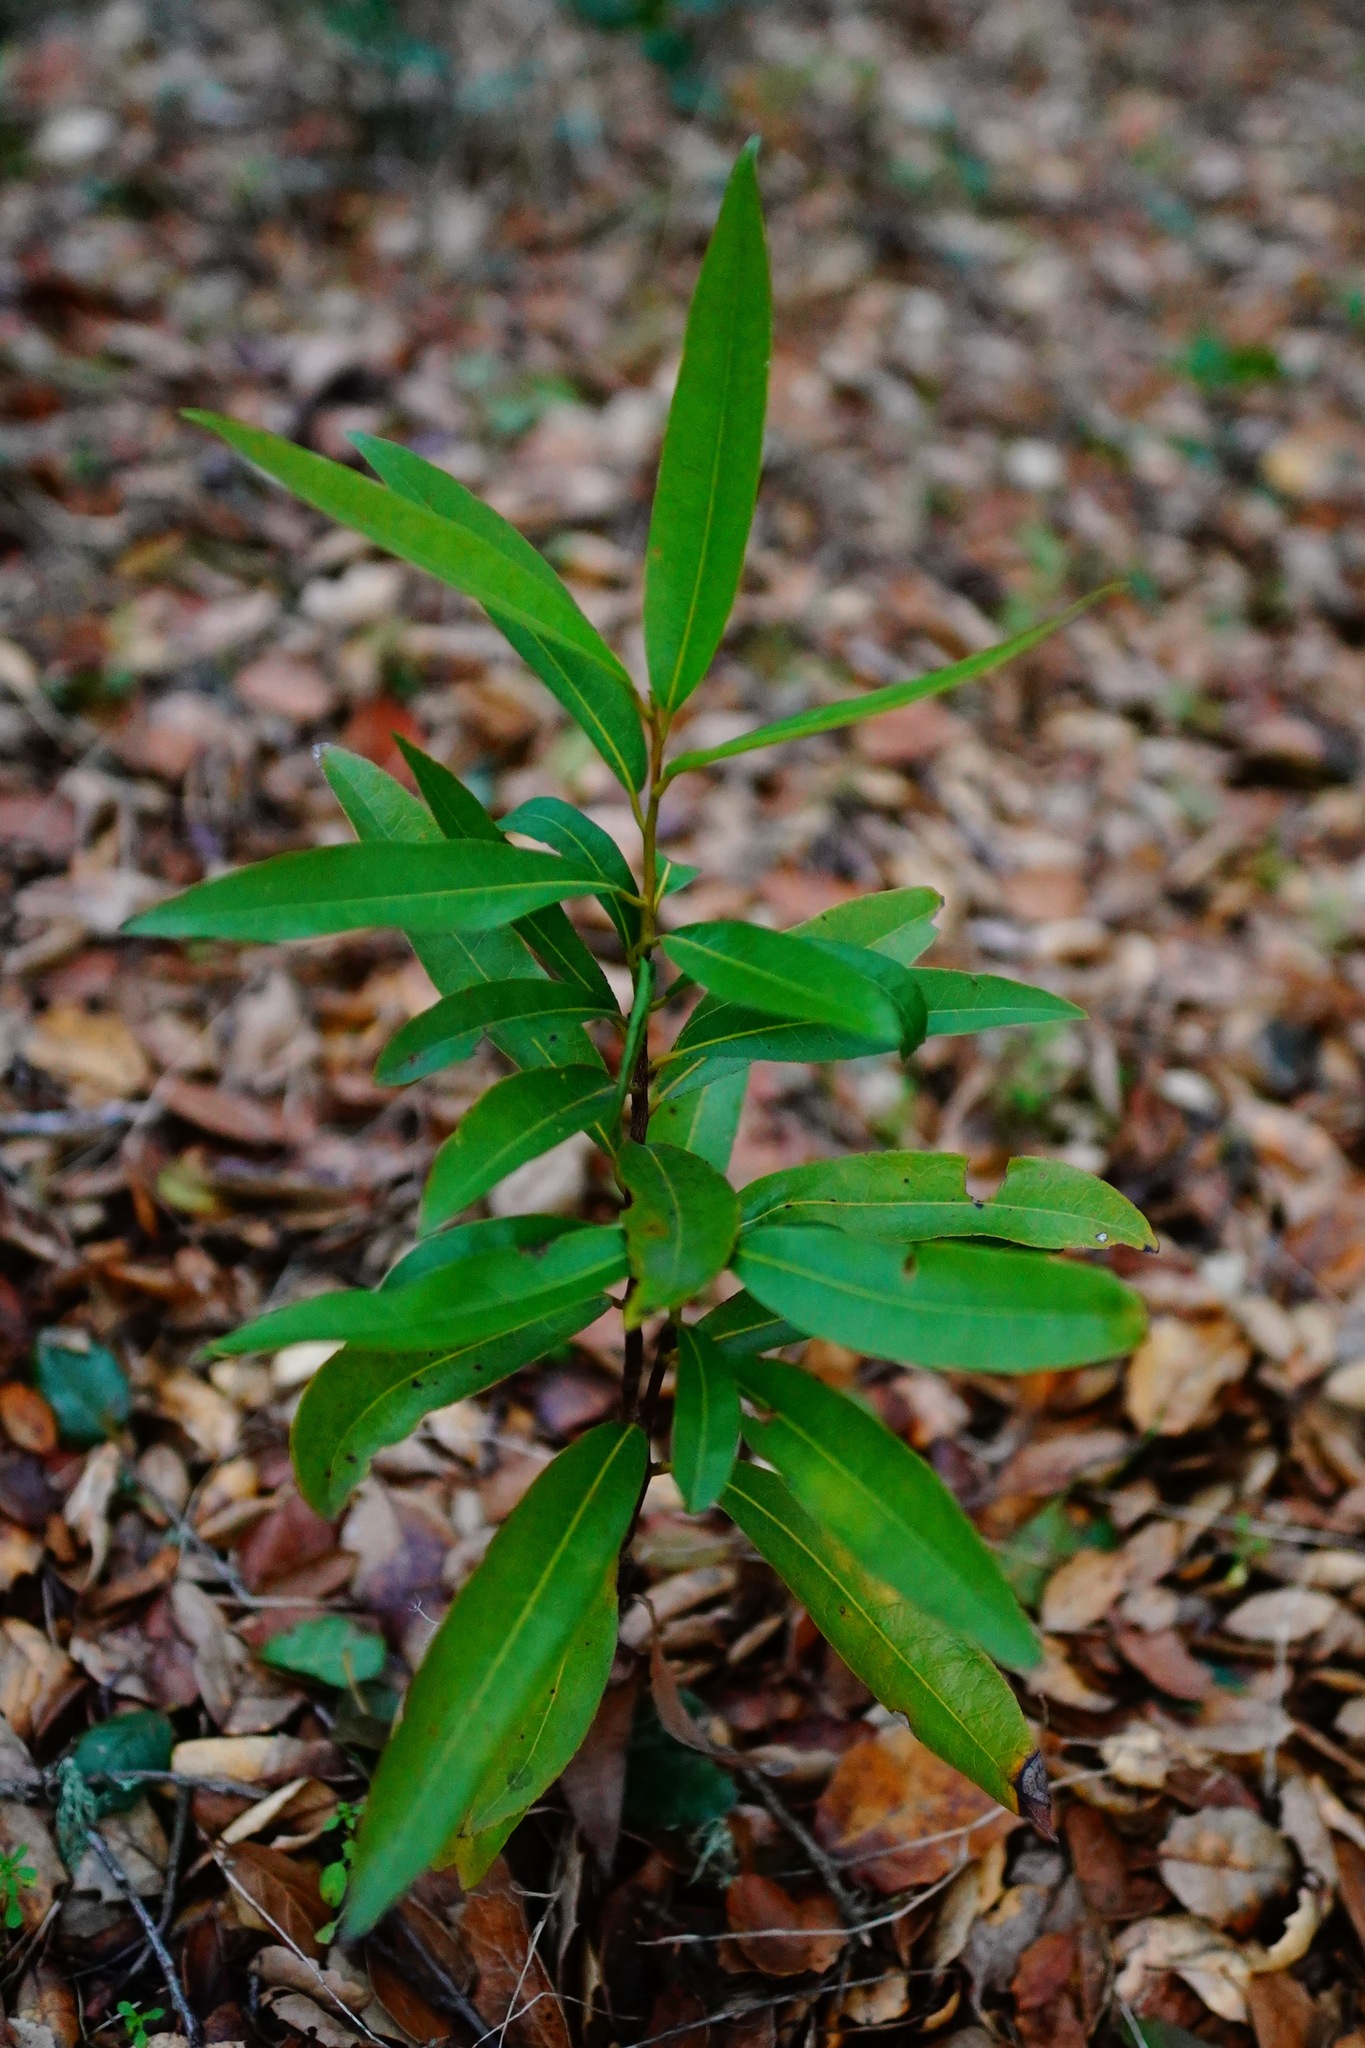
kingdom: Plantae
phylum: Tracheophyta
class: Magnoliopsida
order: Laurales
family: Lauraceae
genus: Umbellularia
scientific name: Umbellularia californica
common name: California bay
